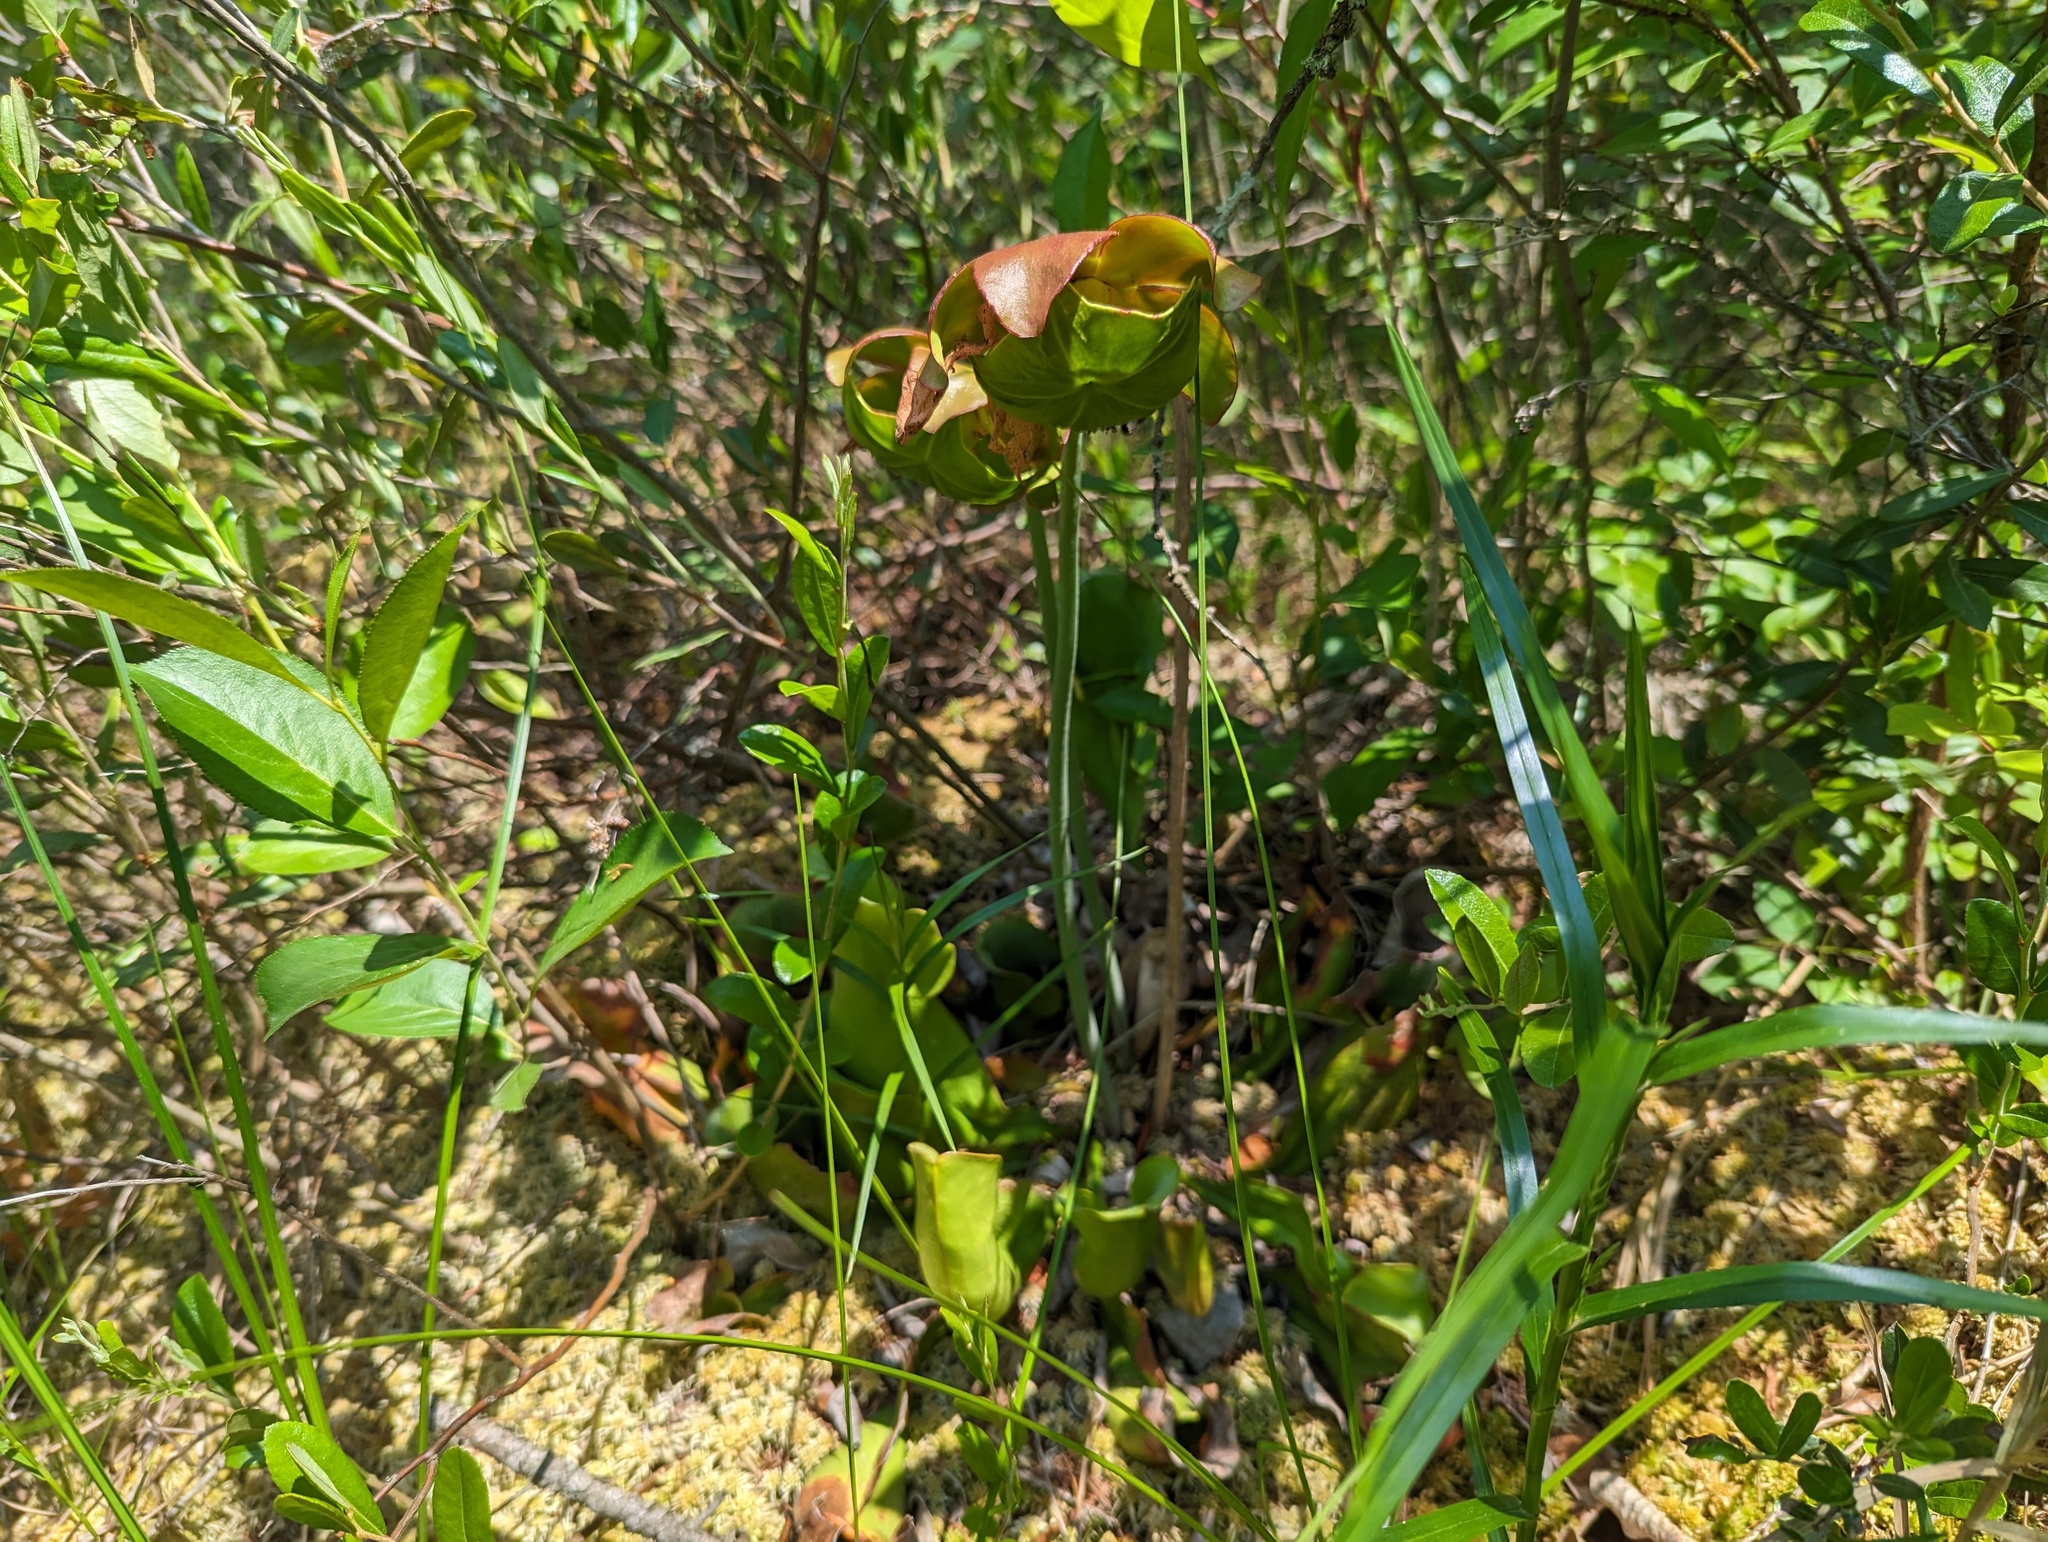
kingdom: Plantae
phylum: Tracheophyta
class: Magnoliopsida
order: Ericales
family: Sarraceniaceae
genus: Sarracenia
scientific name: Sarracenia purpurea
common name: Pitcherplant
